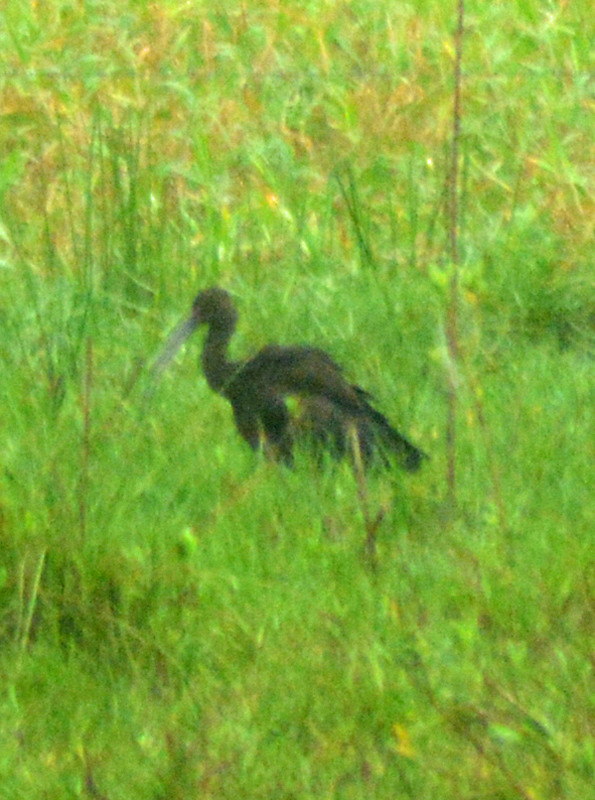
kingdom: Animalia
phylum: Chordata
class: Aves
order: Pelecaniformes
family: Threskiornithidae
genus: Plegadis
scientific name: Plegadis chihi
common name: White-faced ibis
